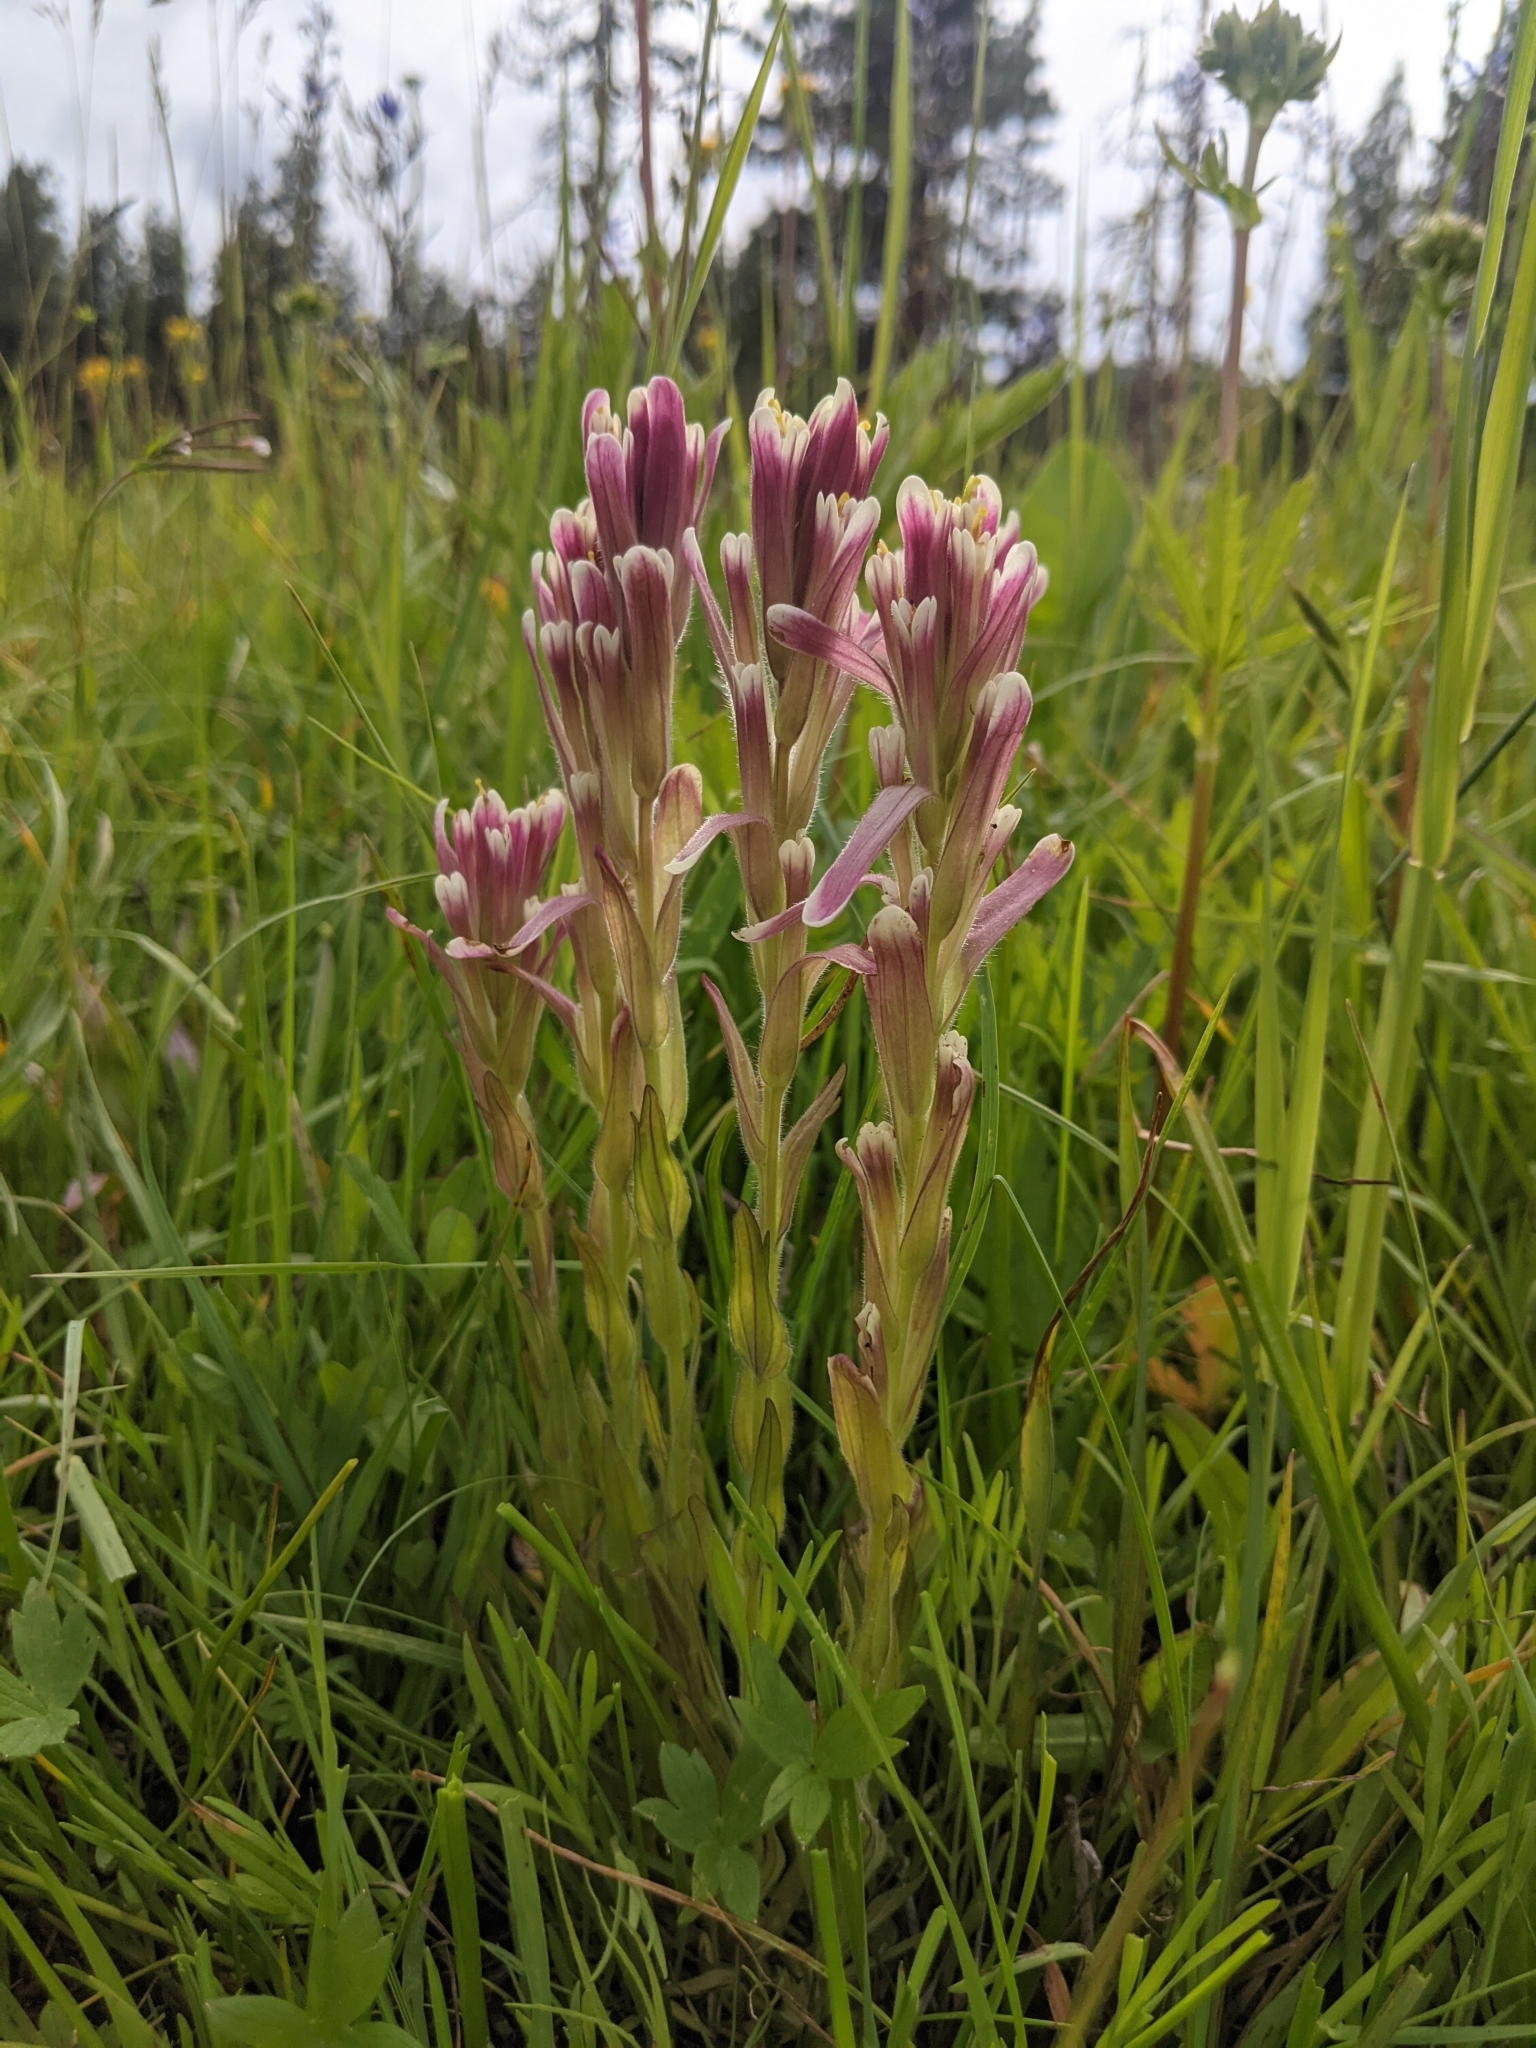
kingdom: Plantae
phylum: Tracheophyta
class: Magnoliopsida
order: Lamiales
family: Orobanchaceae
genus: Castilleja
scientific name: Castilleja cusickii
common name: Cusick's paintbrush
